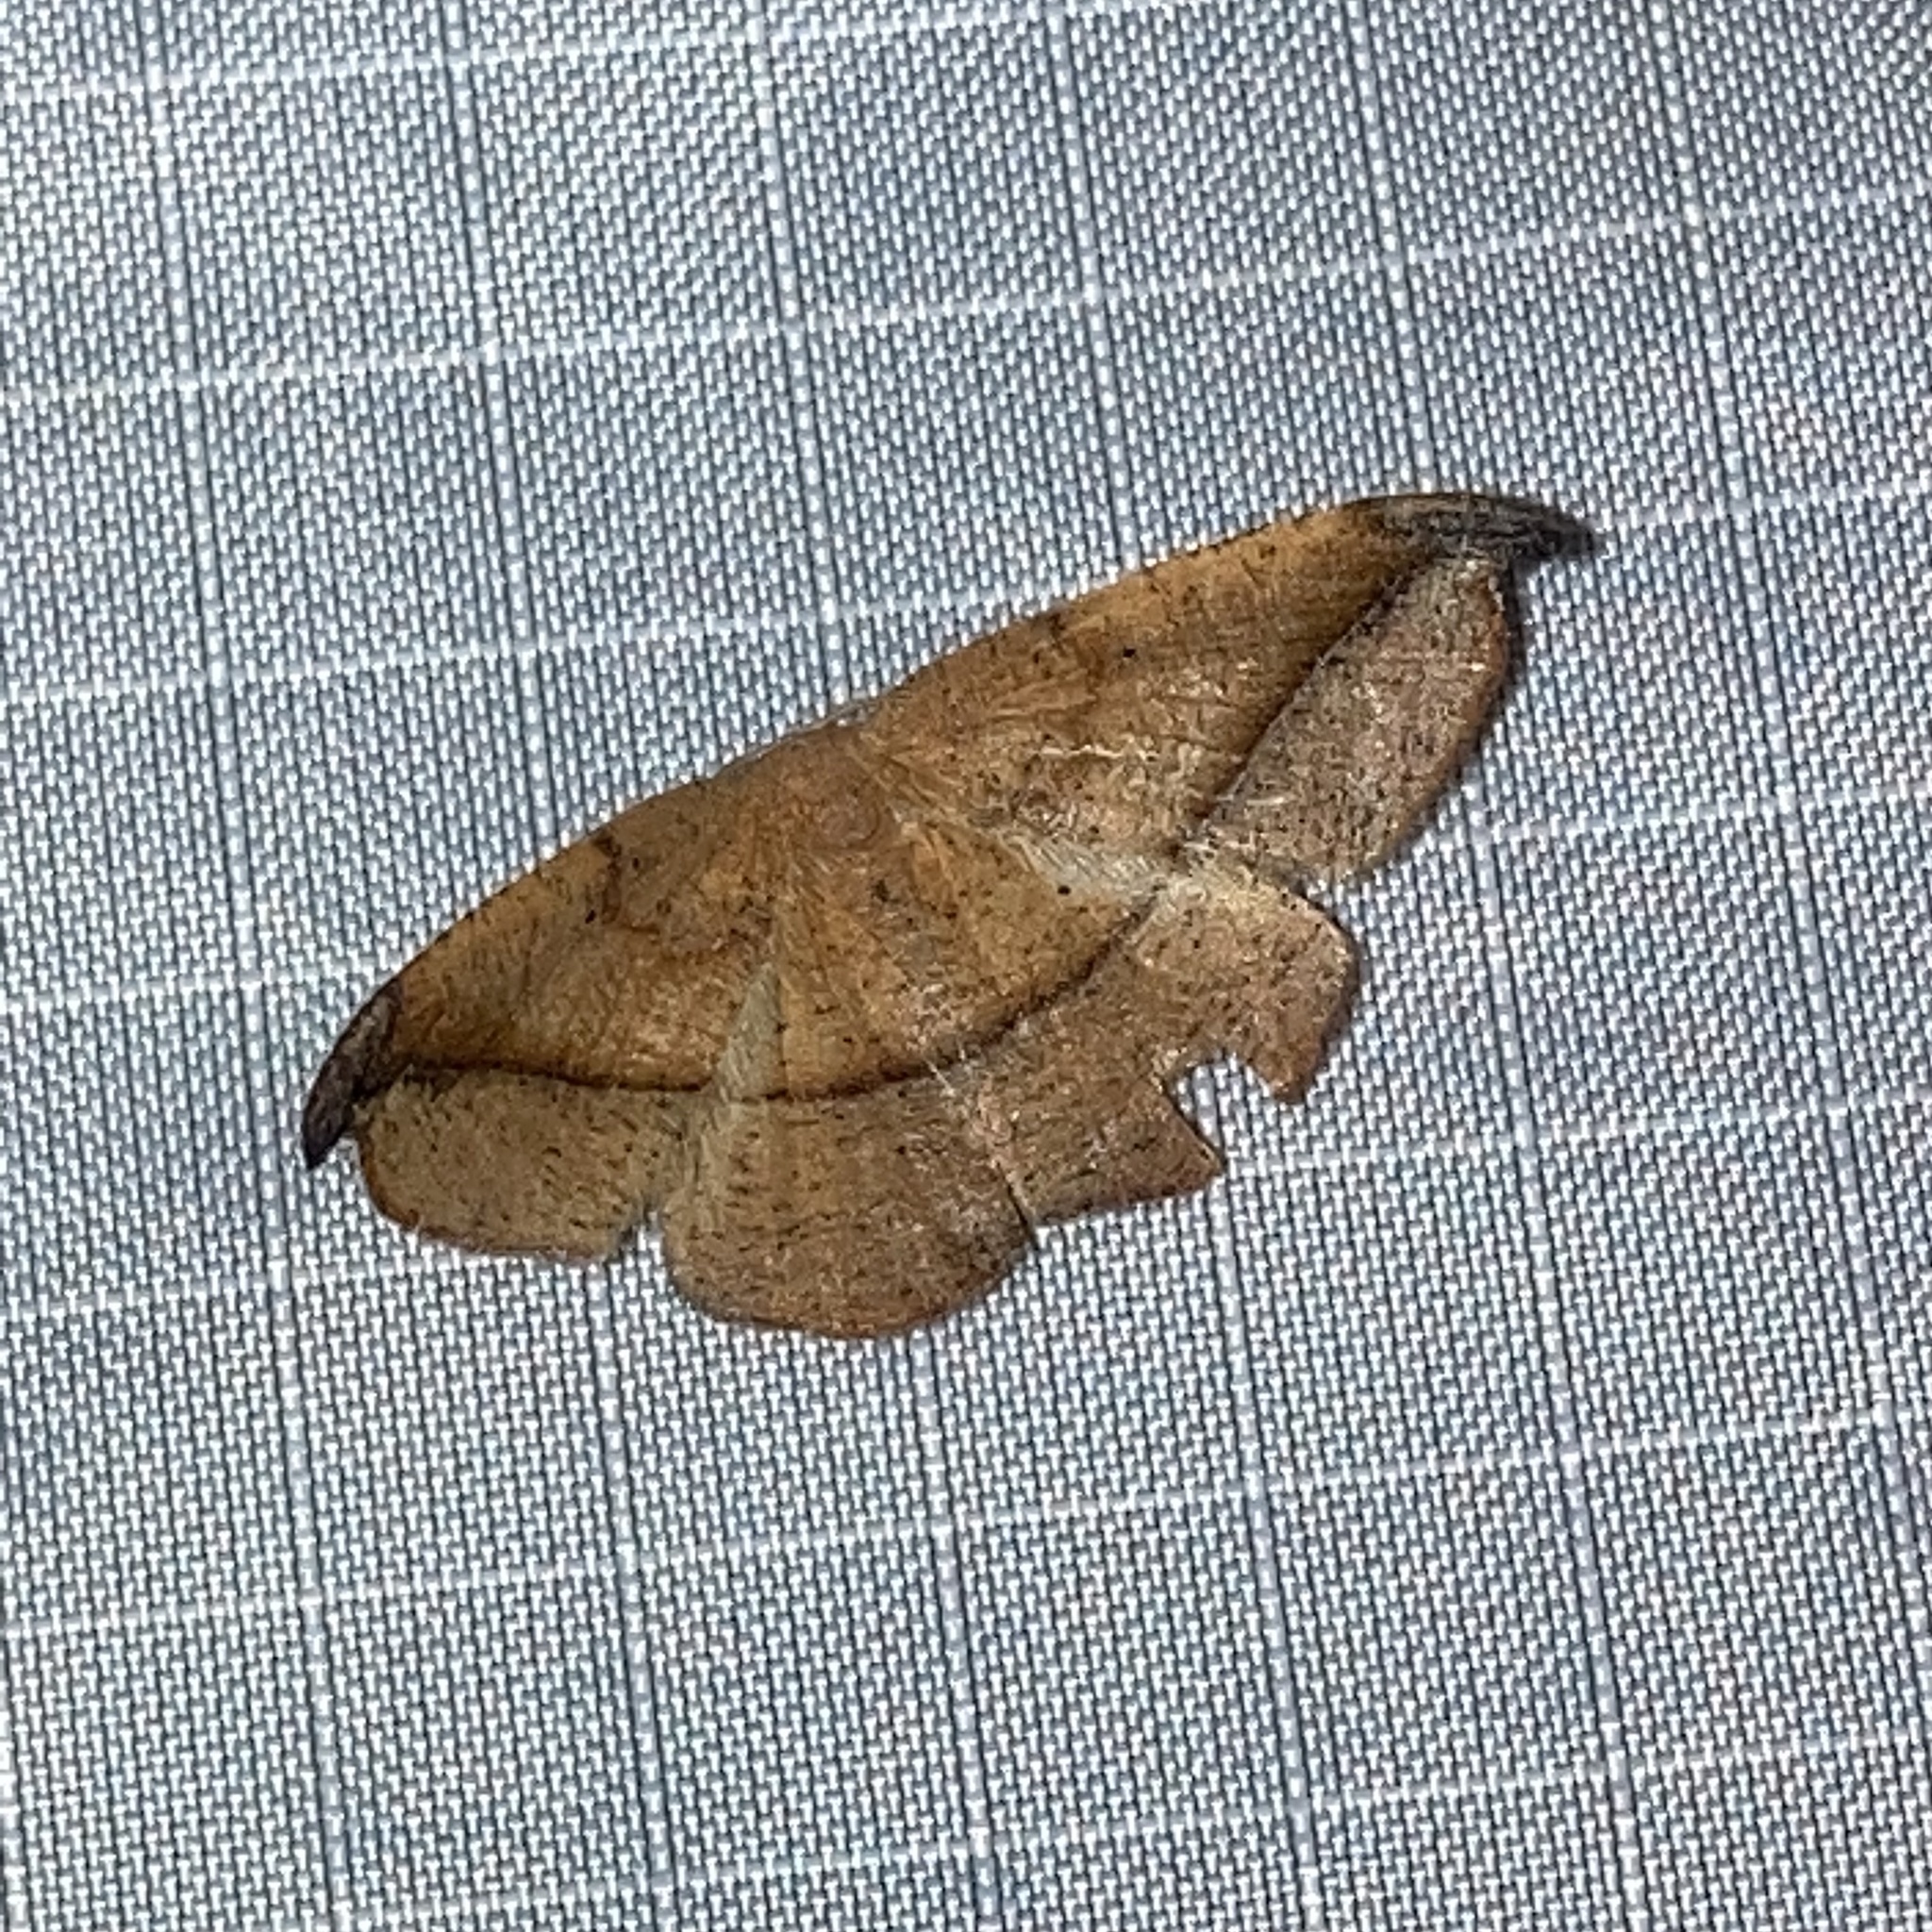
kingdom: Animalia
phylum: Arthropoda
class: Insecta
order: Lepidoptera
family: Geometridae
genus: Patalene
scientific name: Patalene olyzonaria
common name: Juniper geometer moth
